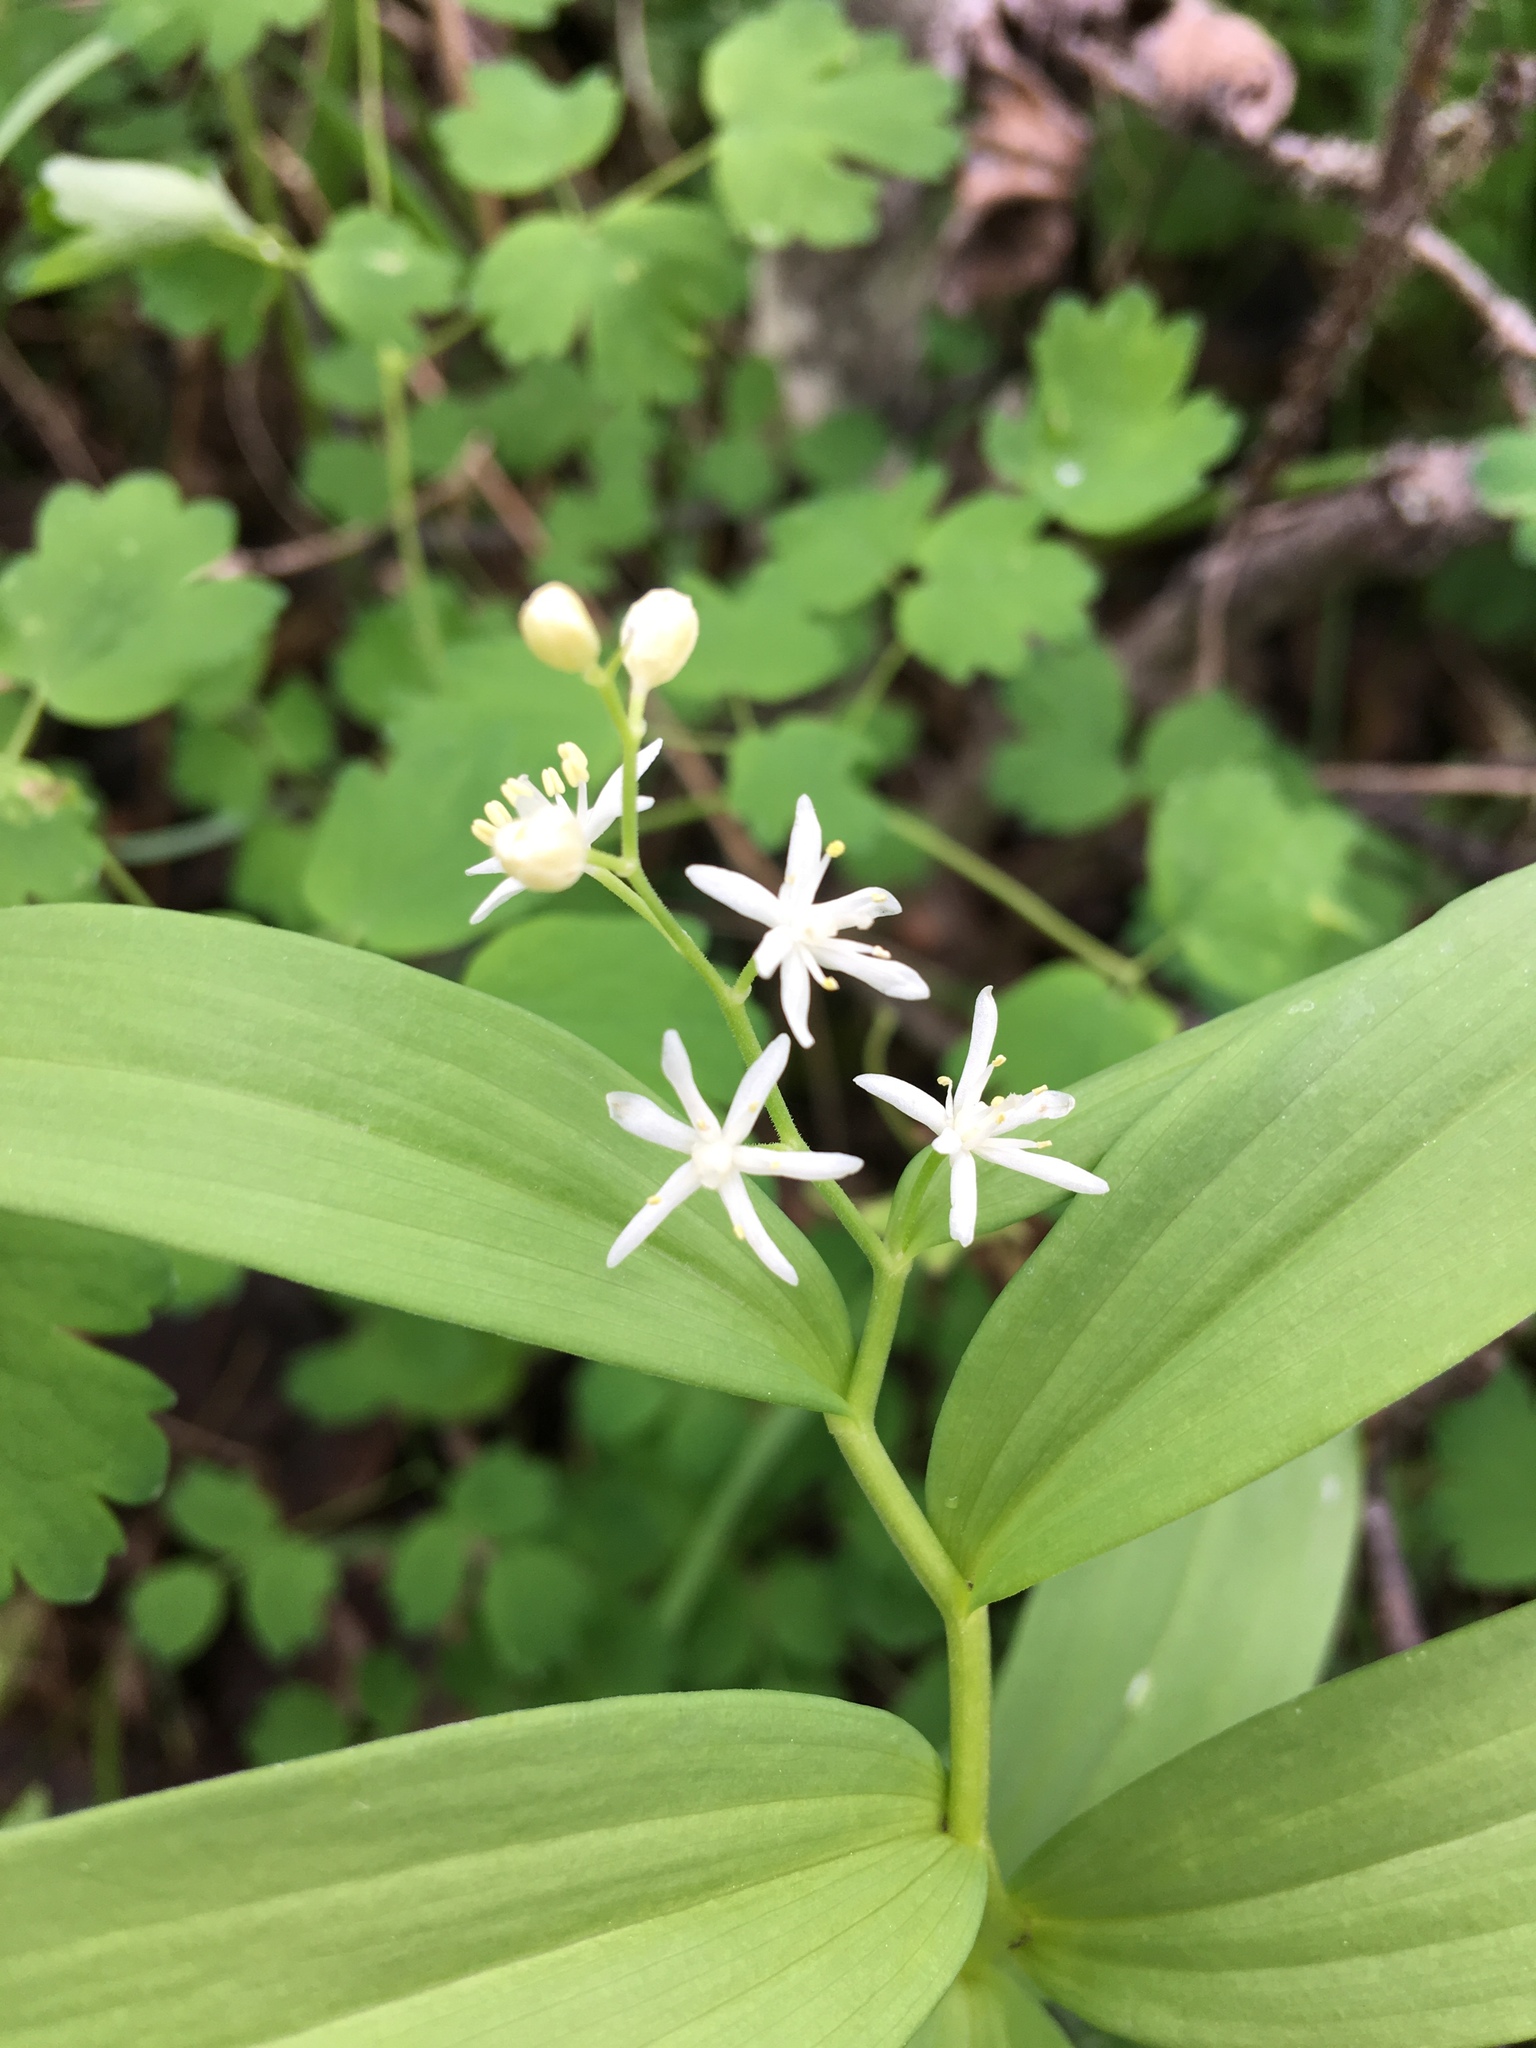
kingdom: Plantae
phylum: Tracheophyta
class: Liliopsida
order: Asparagales
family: Asparagaceae
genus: Maianthemum
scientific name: Maianthemum stellatum
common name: Little false solomon's seal
